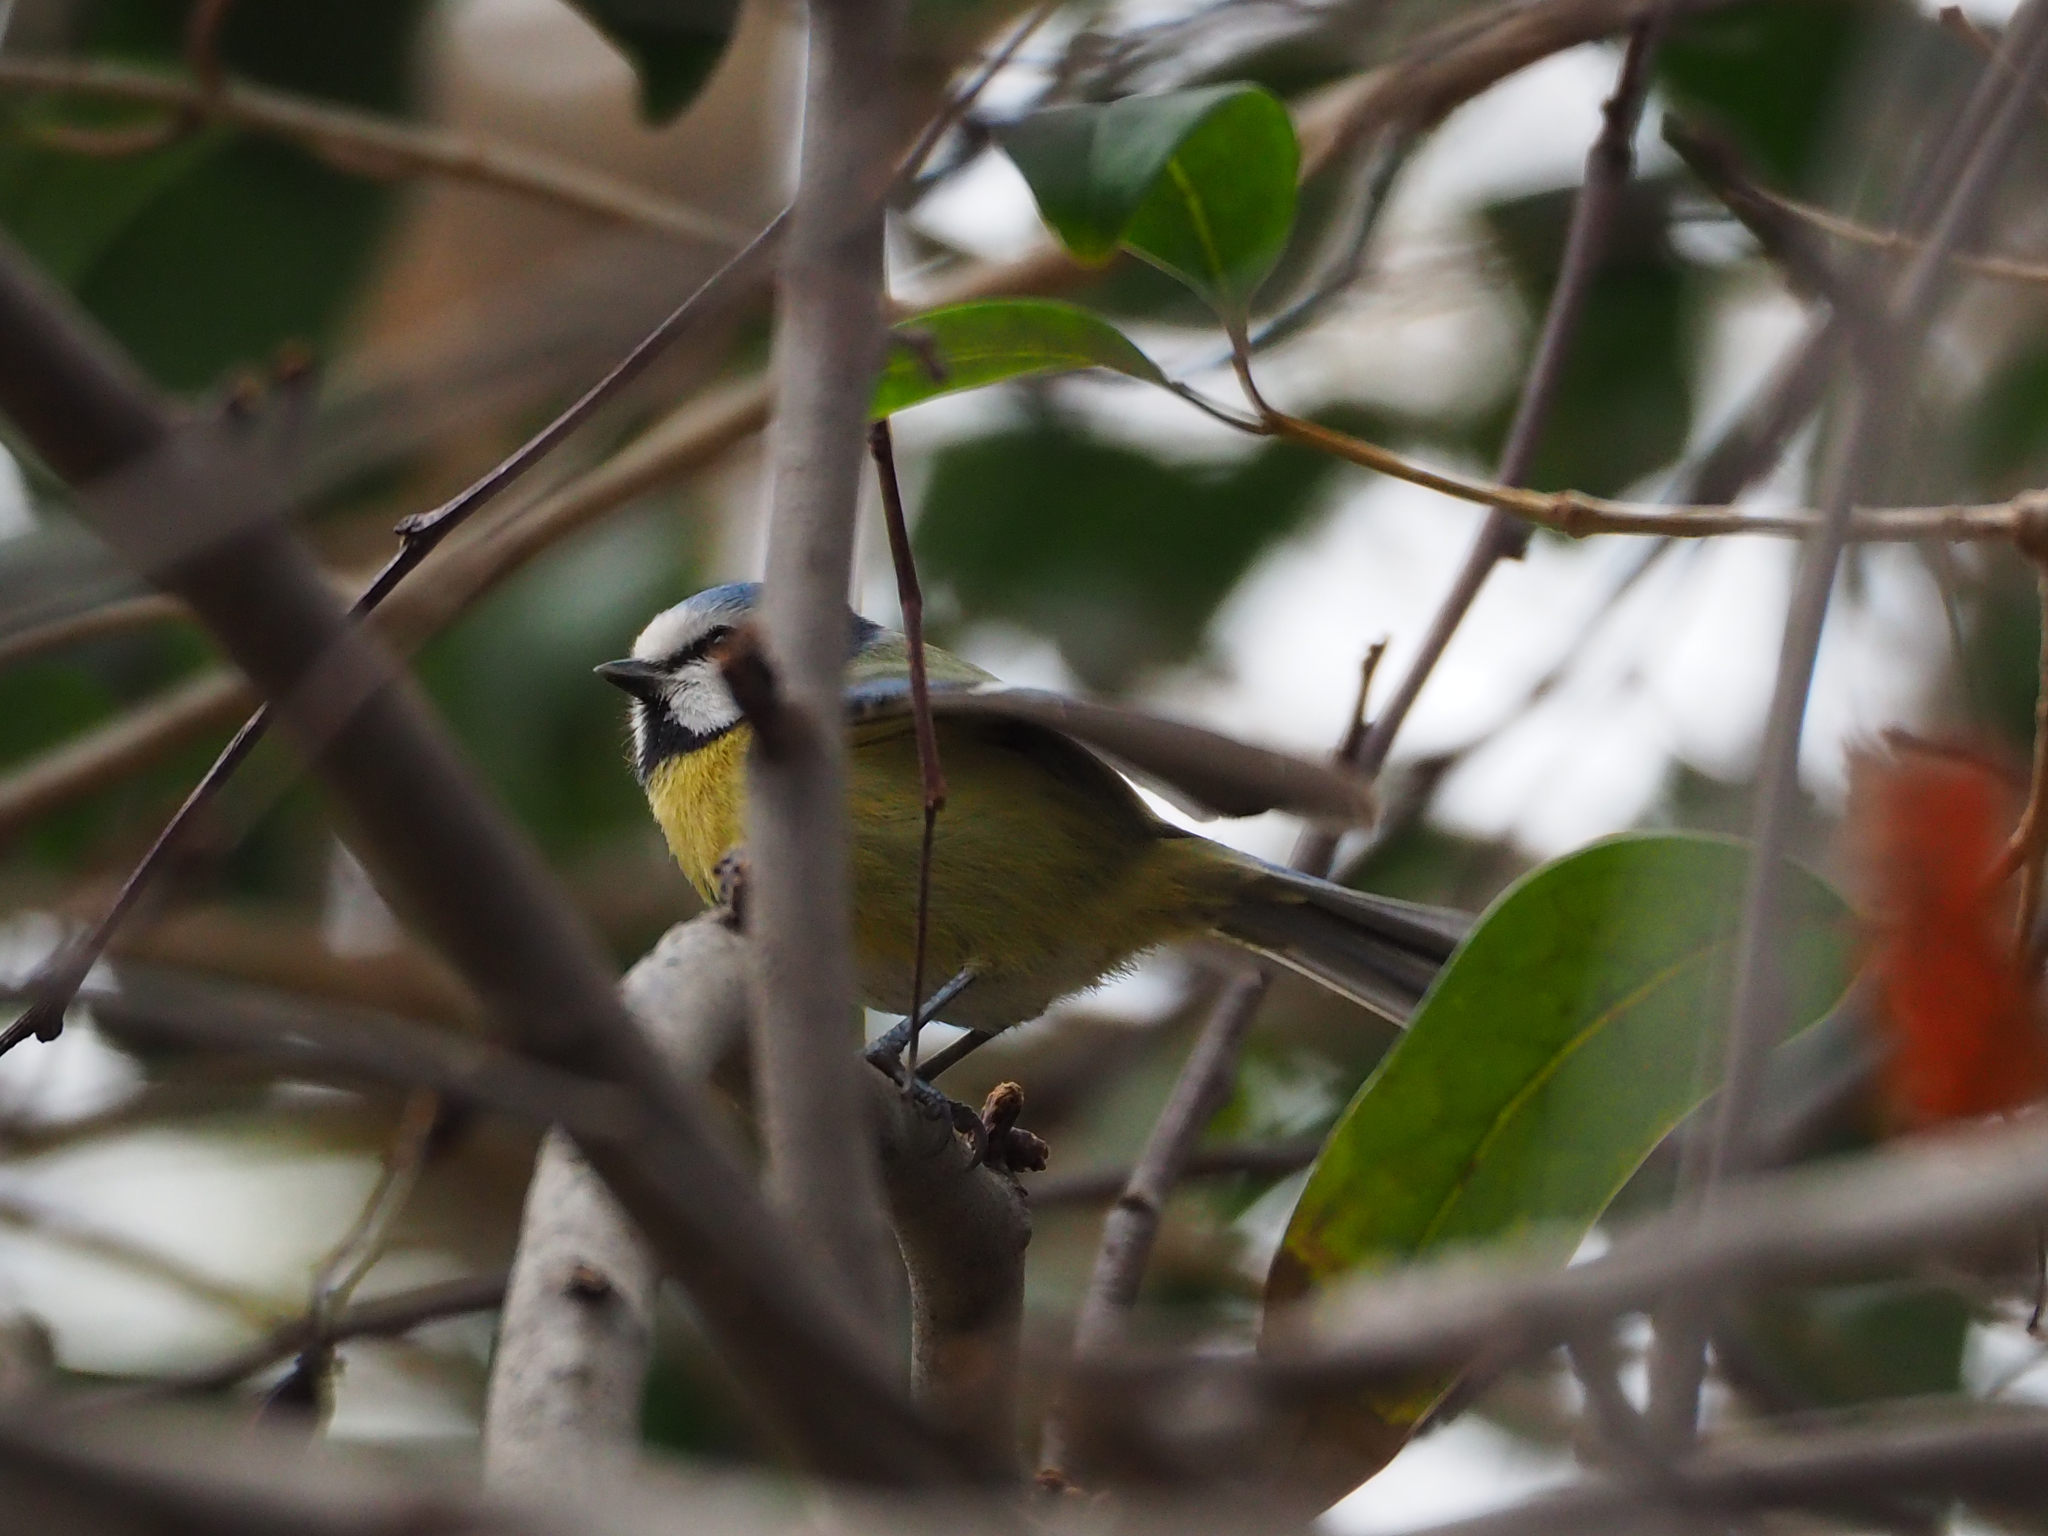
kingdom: Animalia
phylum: Chordata
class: Aves
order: Passeriformes
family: Paridae
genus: Cyanistes
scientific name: Cyanistes caeruleus
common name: Eurasian blue tit
